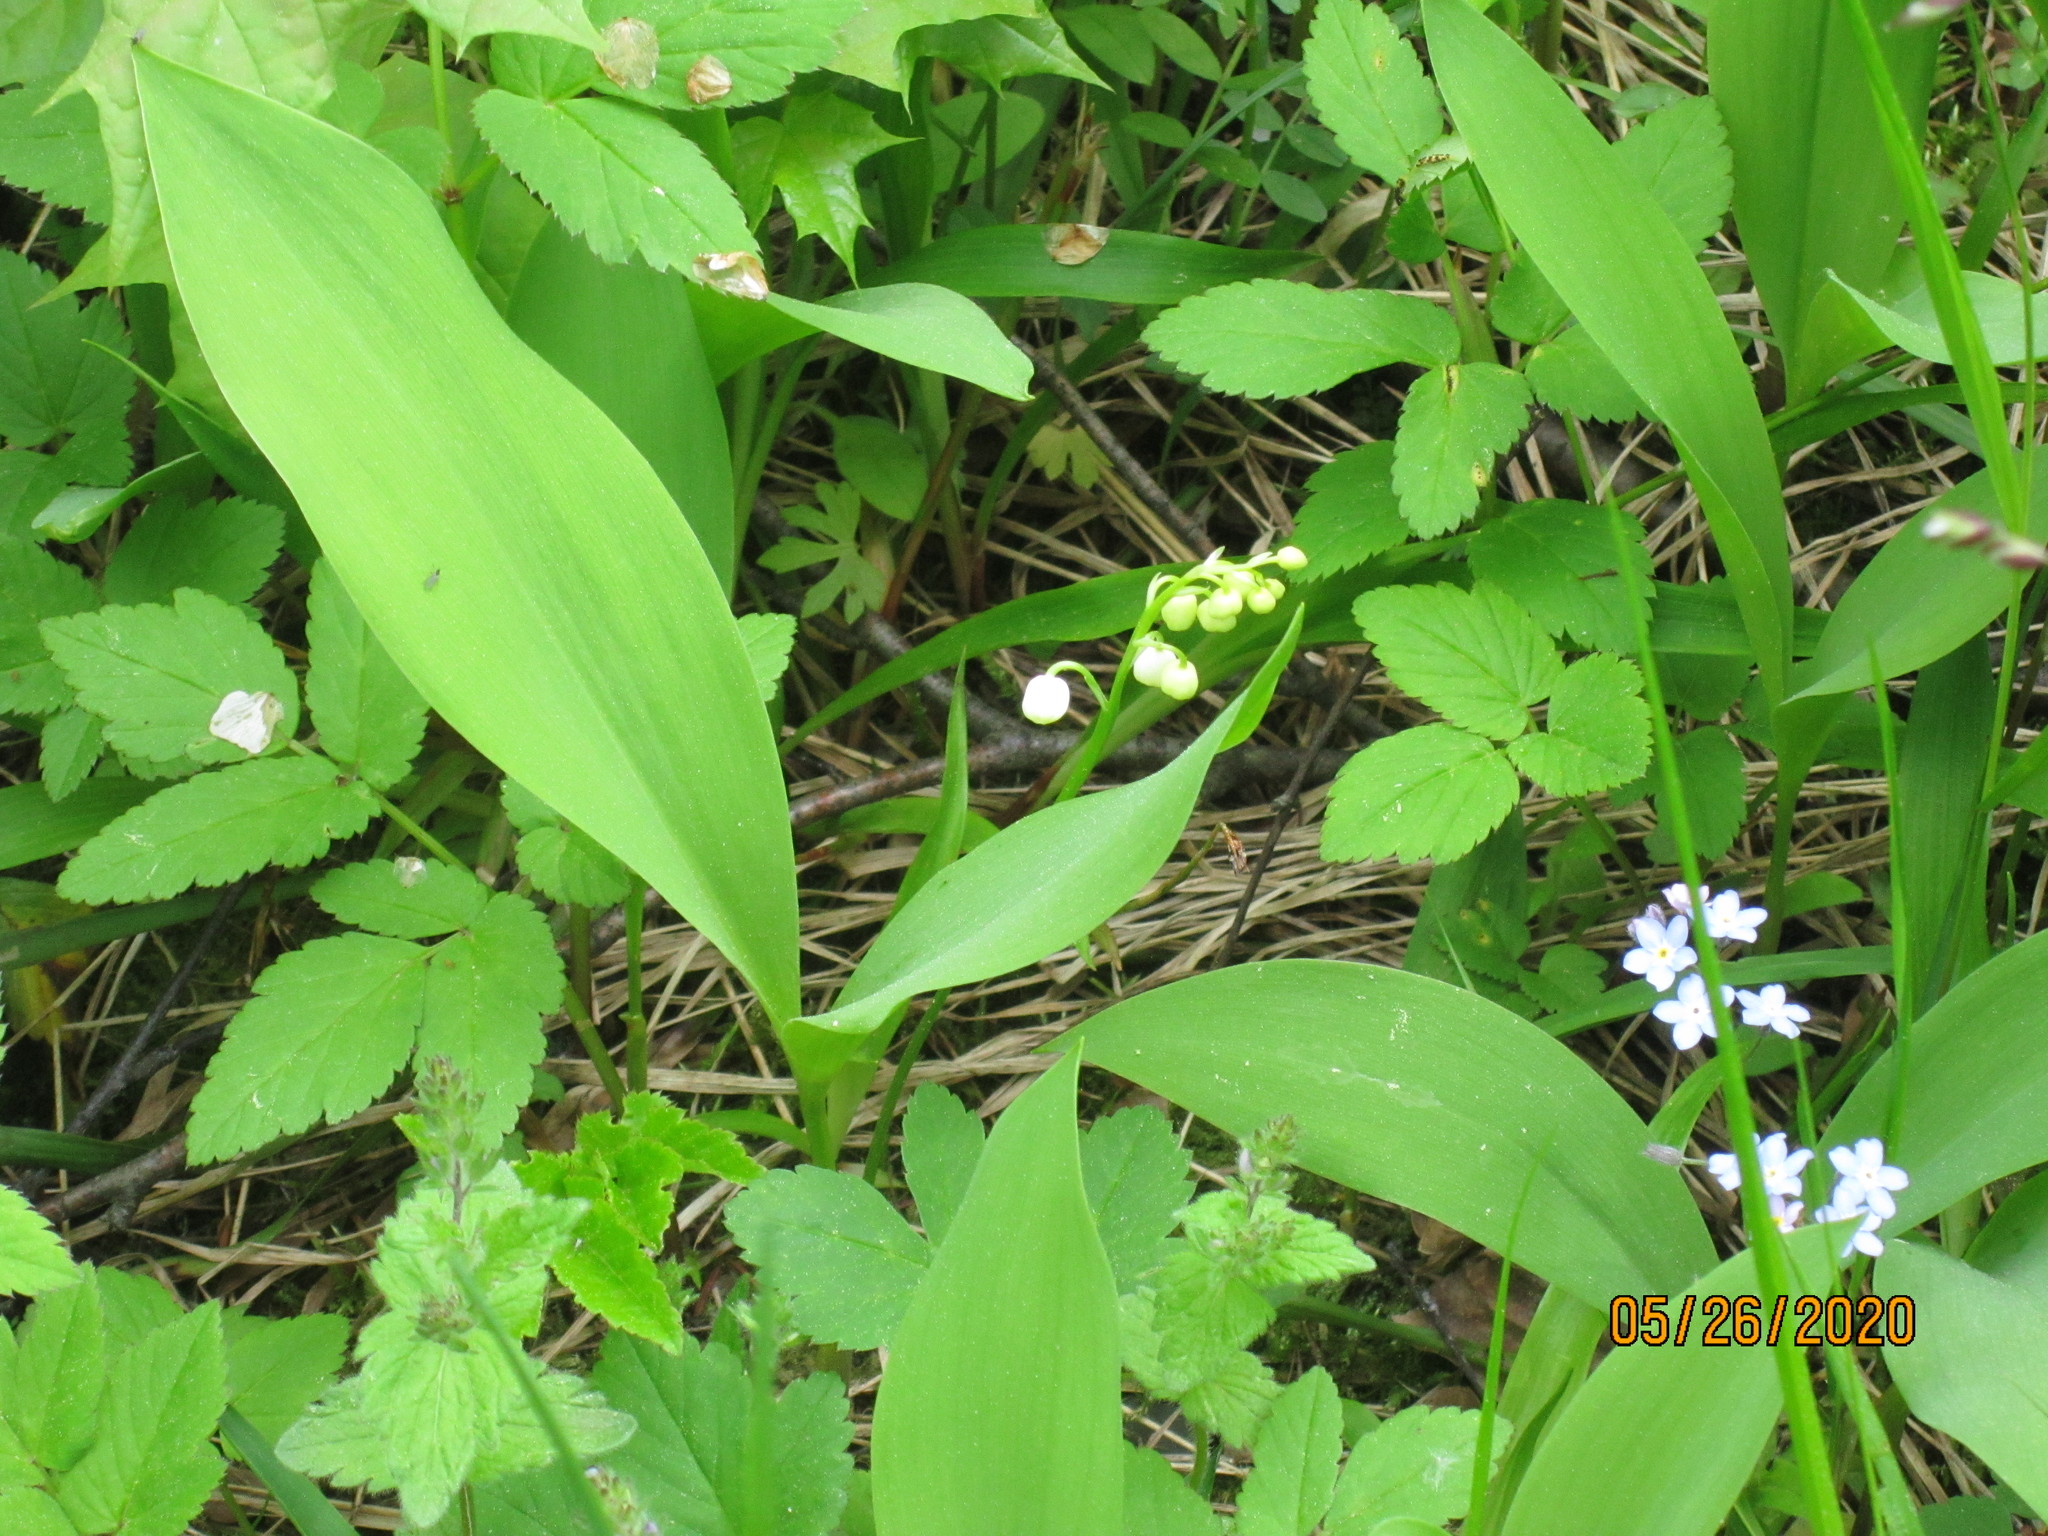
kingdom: Plantae
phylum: Tracheophyta
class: Liliopsida
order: Asparagales
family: Asparagaceae
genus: Convallaria
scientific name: Convallaria majalis
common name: Lily-of-the-valley
